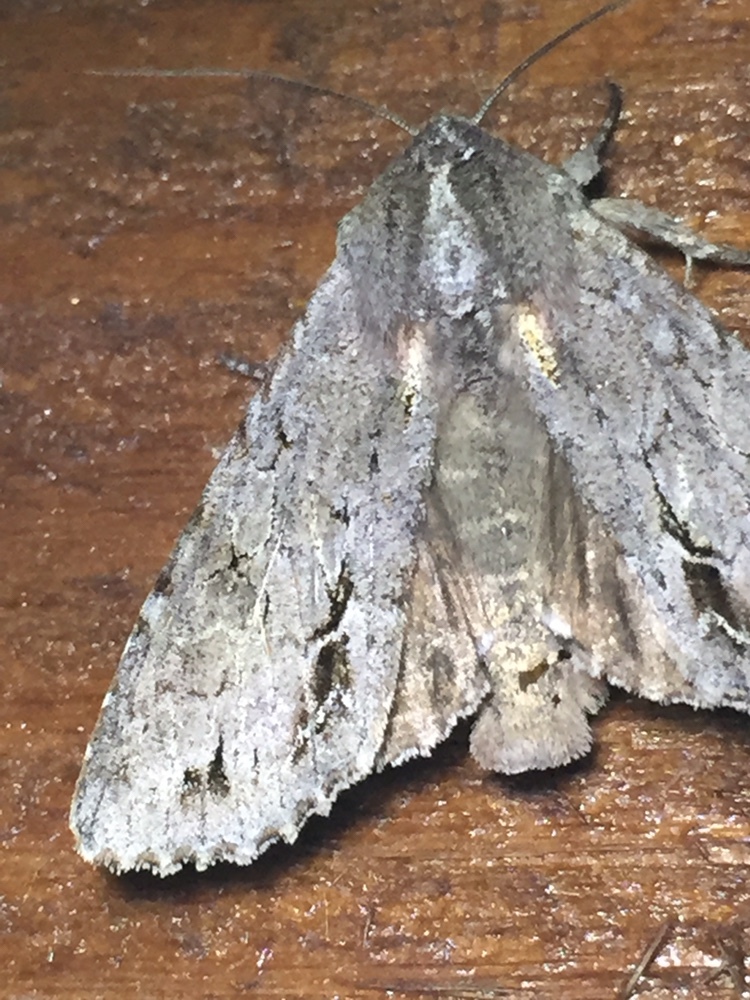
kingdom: Animalia
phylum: Arthropoda
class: Insecta
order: Lepidoptera
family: Noctuidae
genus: Ichneutica
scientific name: Ichneutica
